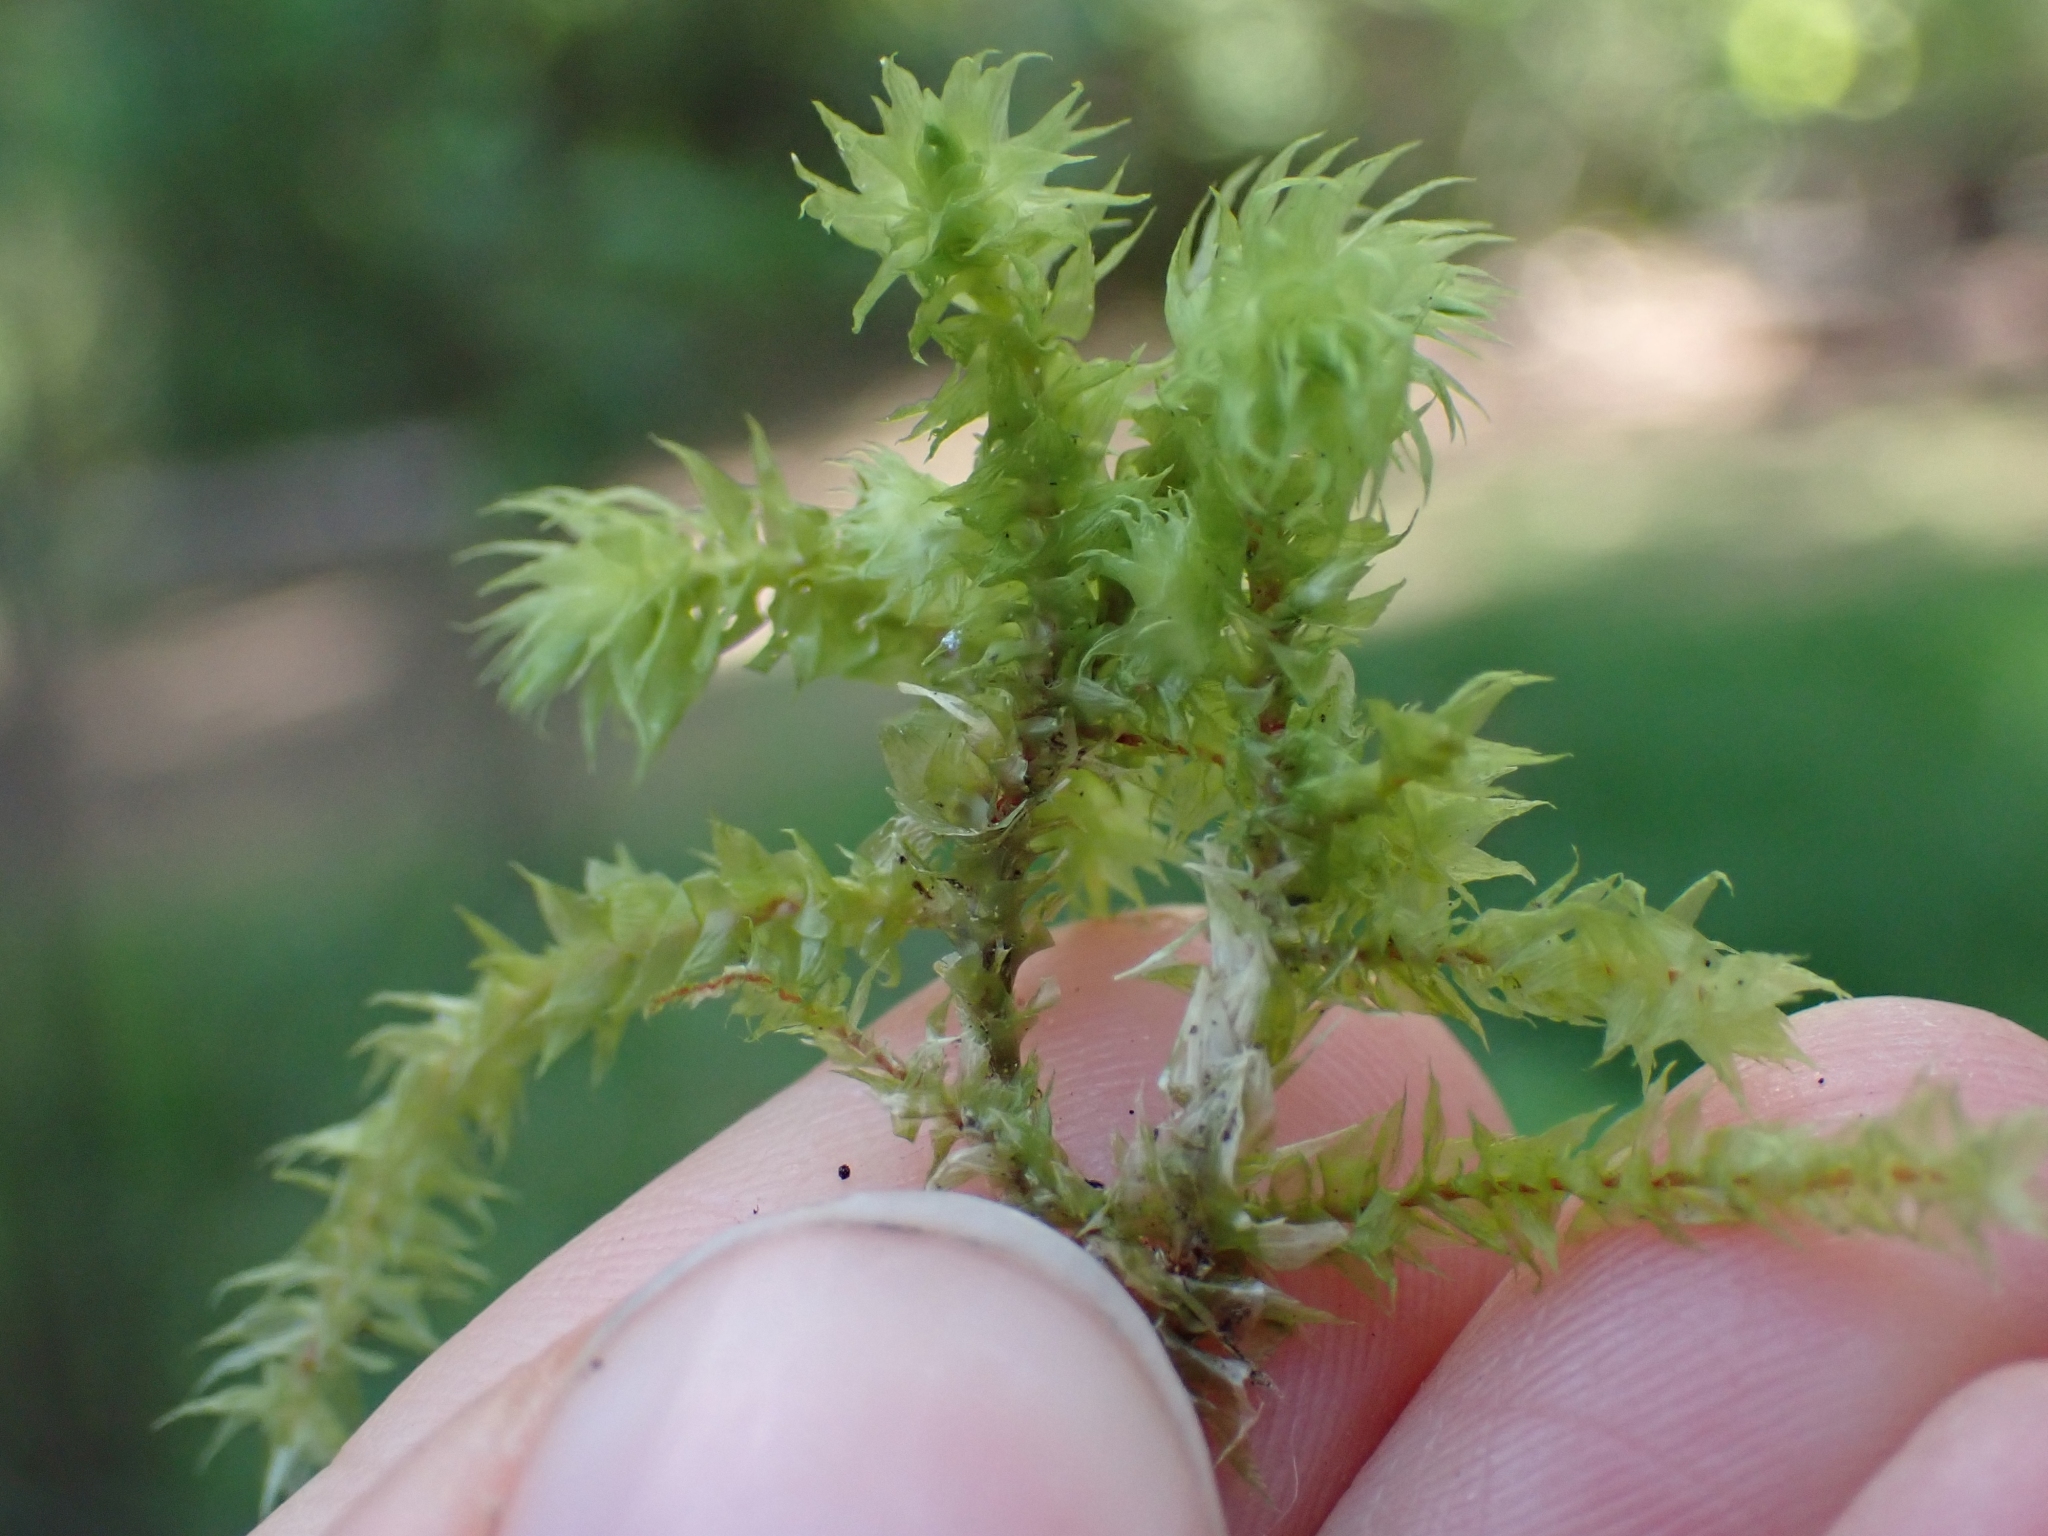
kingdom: Plantae
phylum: Bryophyta
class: Bryopsida
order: Hypnales
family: Hylocomiaceae
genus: Hylocomiadelphus
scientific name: Hylocomiadelphus triquetrus
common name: Rough goose neck moss
